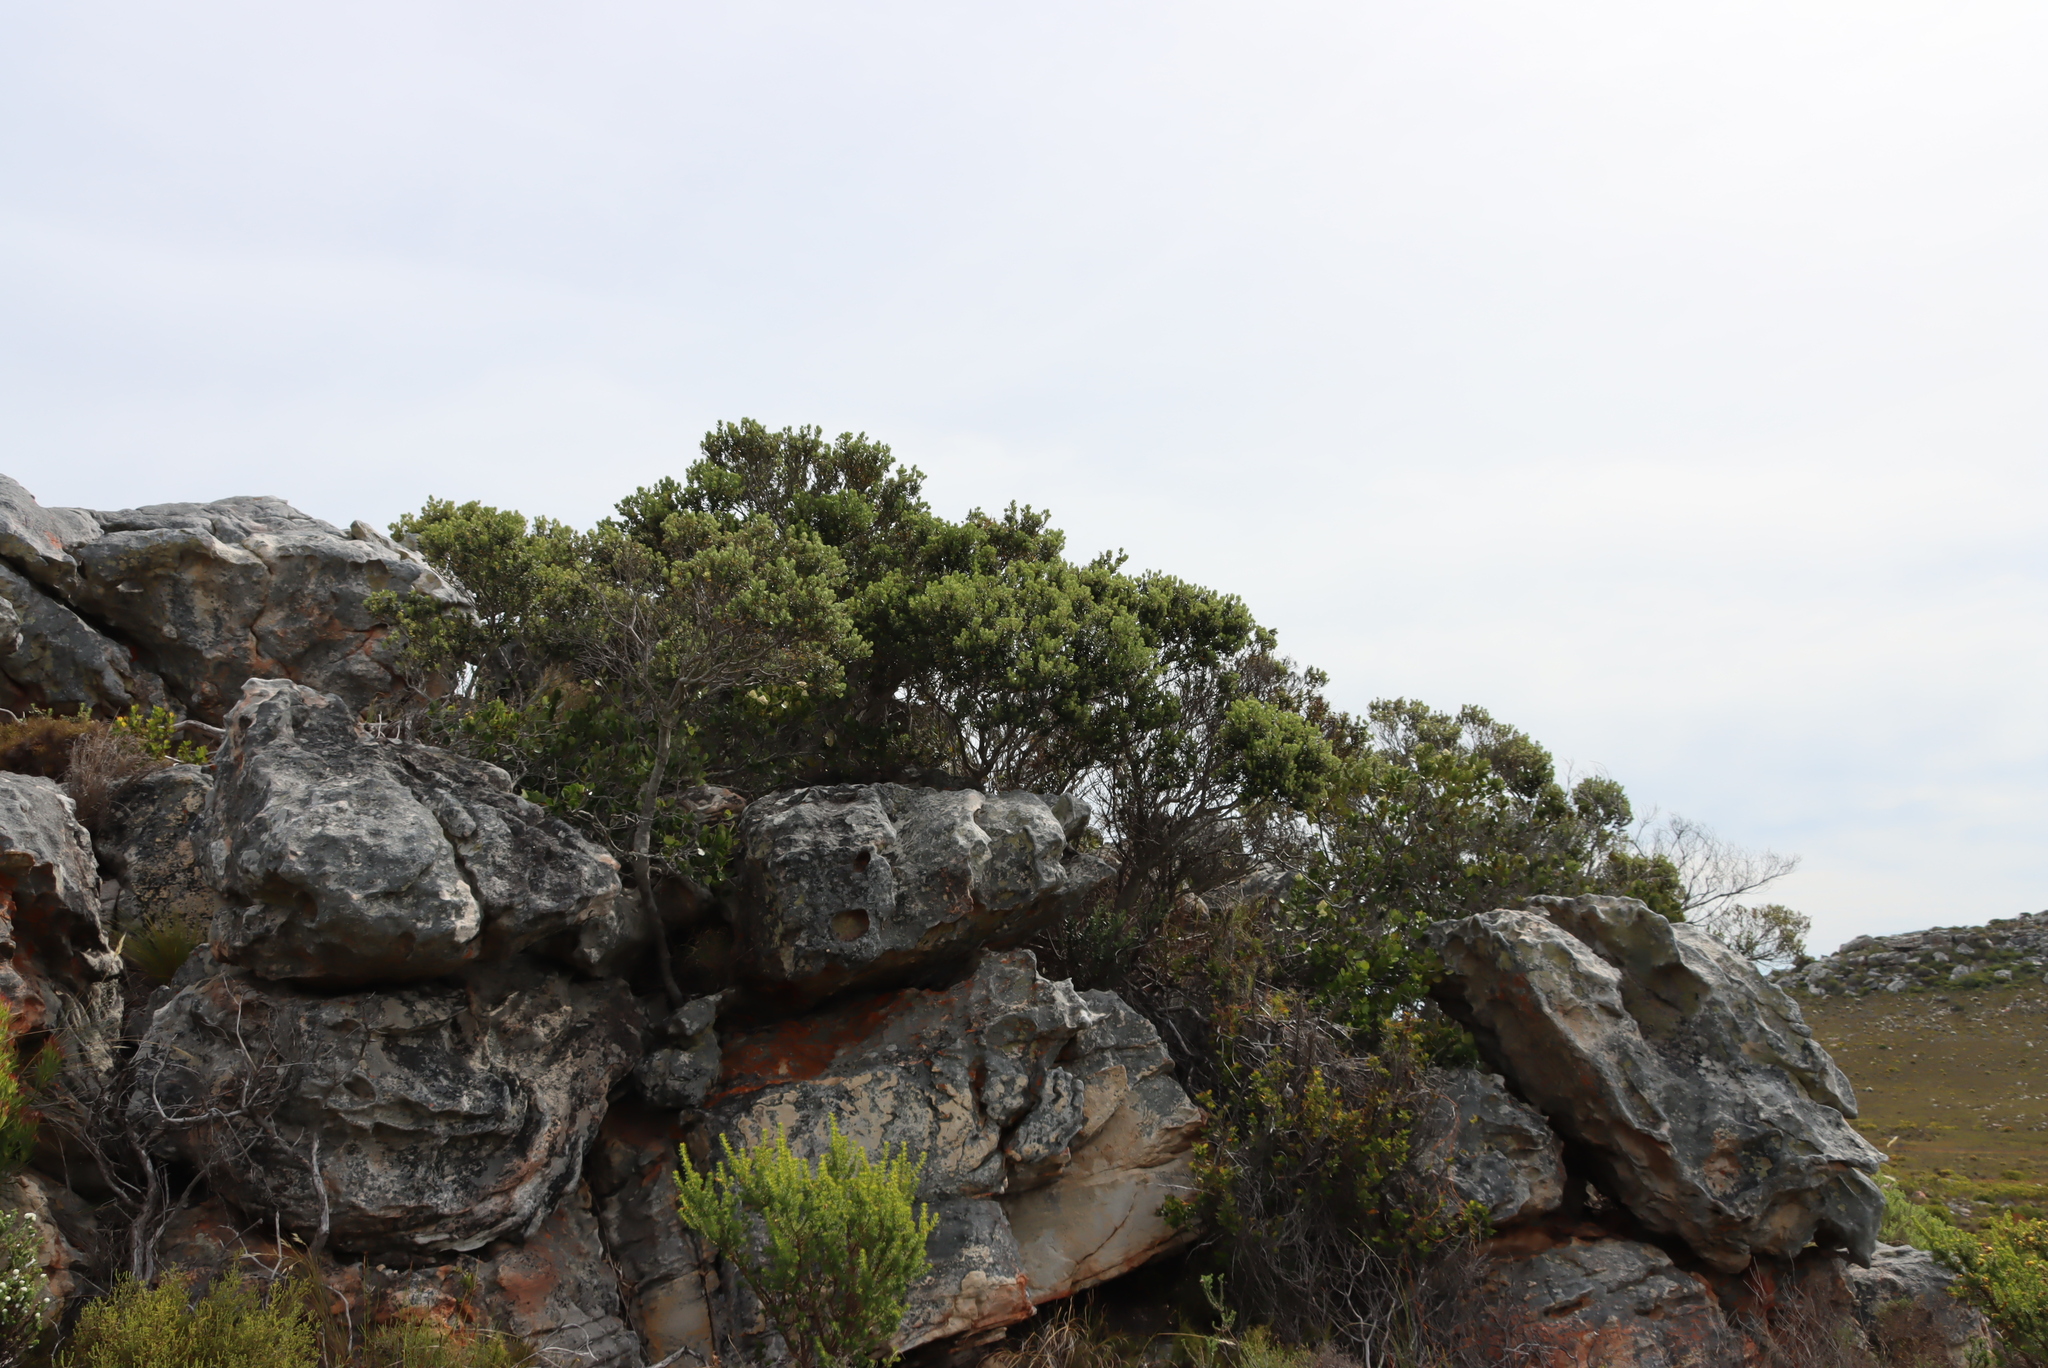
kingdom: Plantae
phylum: Tracheophyta
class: Magnoliopsida
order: Lamiales
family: Oleaceae
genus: Olea
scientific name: Olea capensis
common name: Black ironwood
